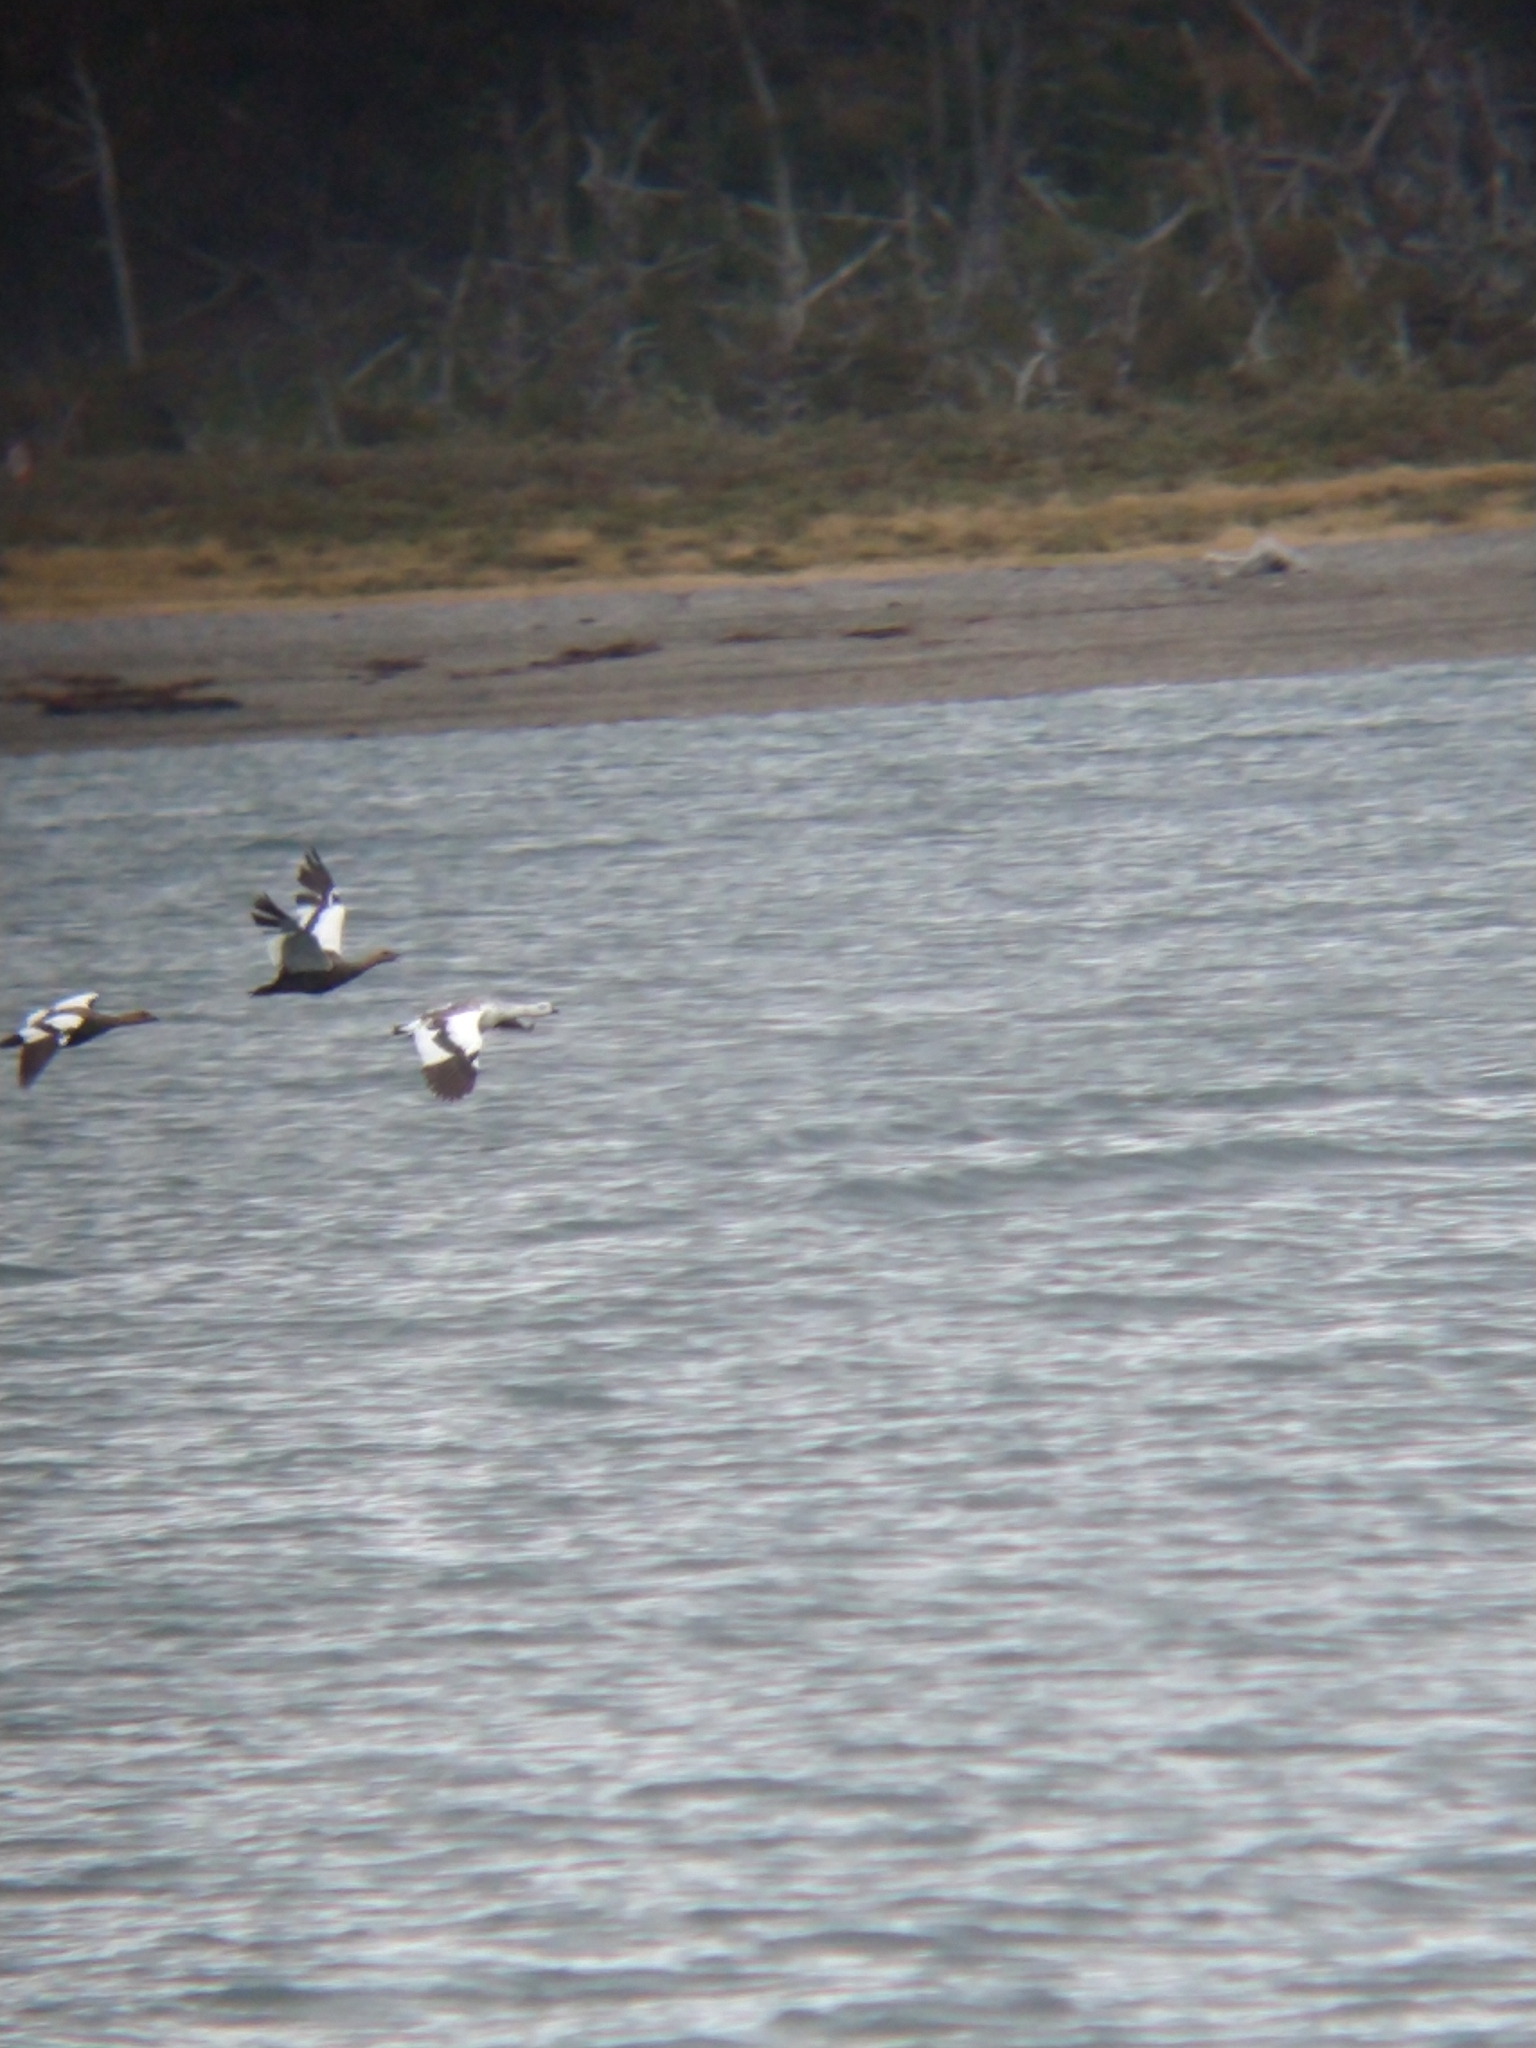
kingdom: Animalia
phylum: Chordata
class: Aves
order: Anseriformes
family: Anatidae
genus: Chloephaga
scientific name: Chloephaga picta
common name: Upland goose
